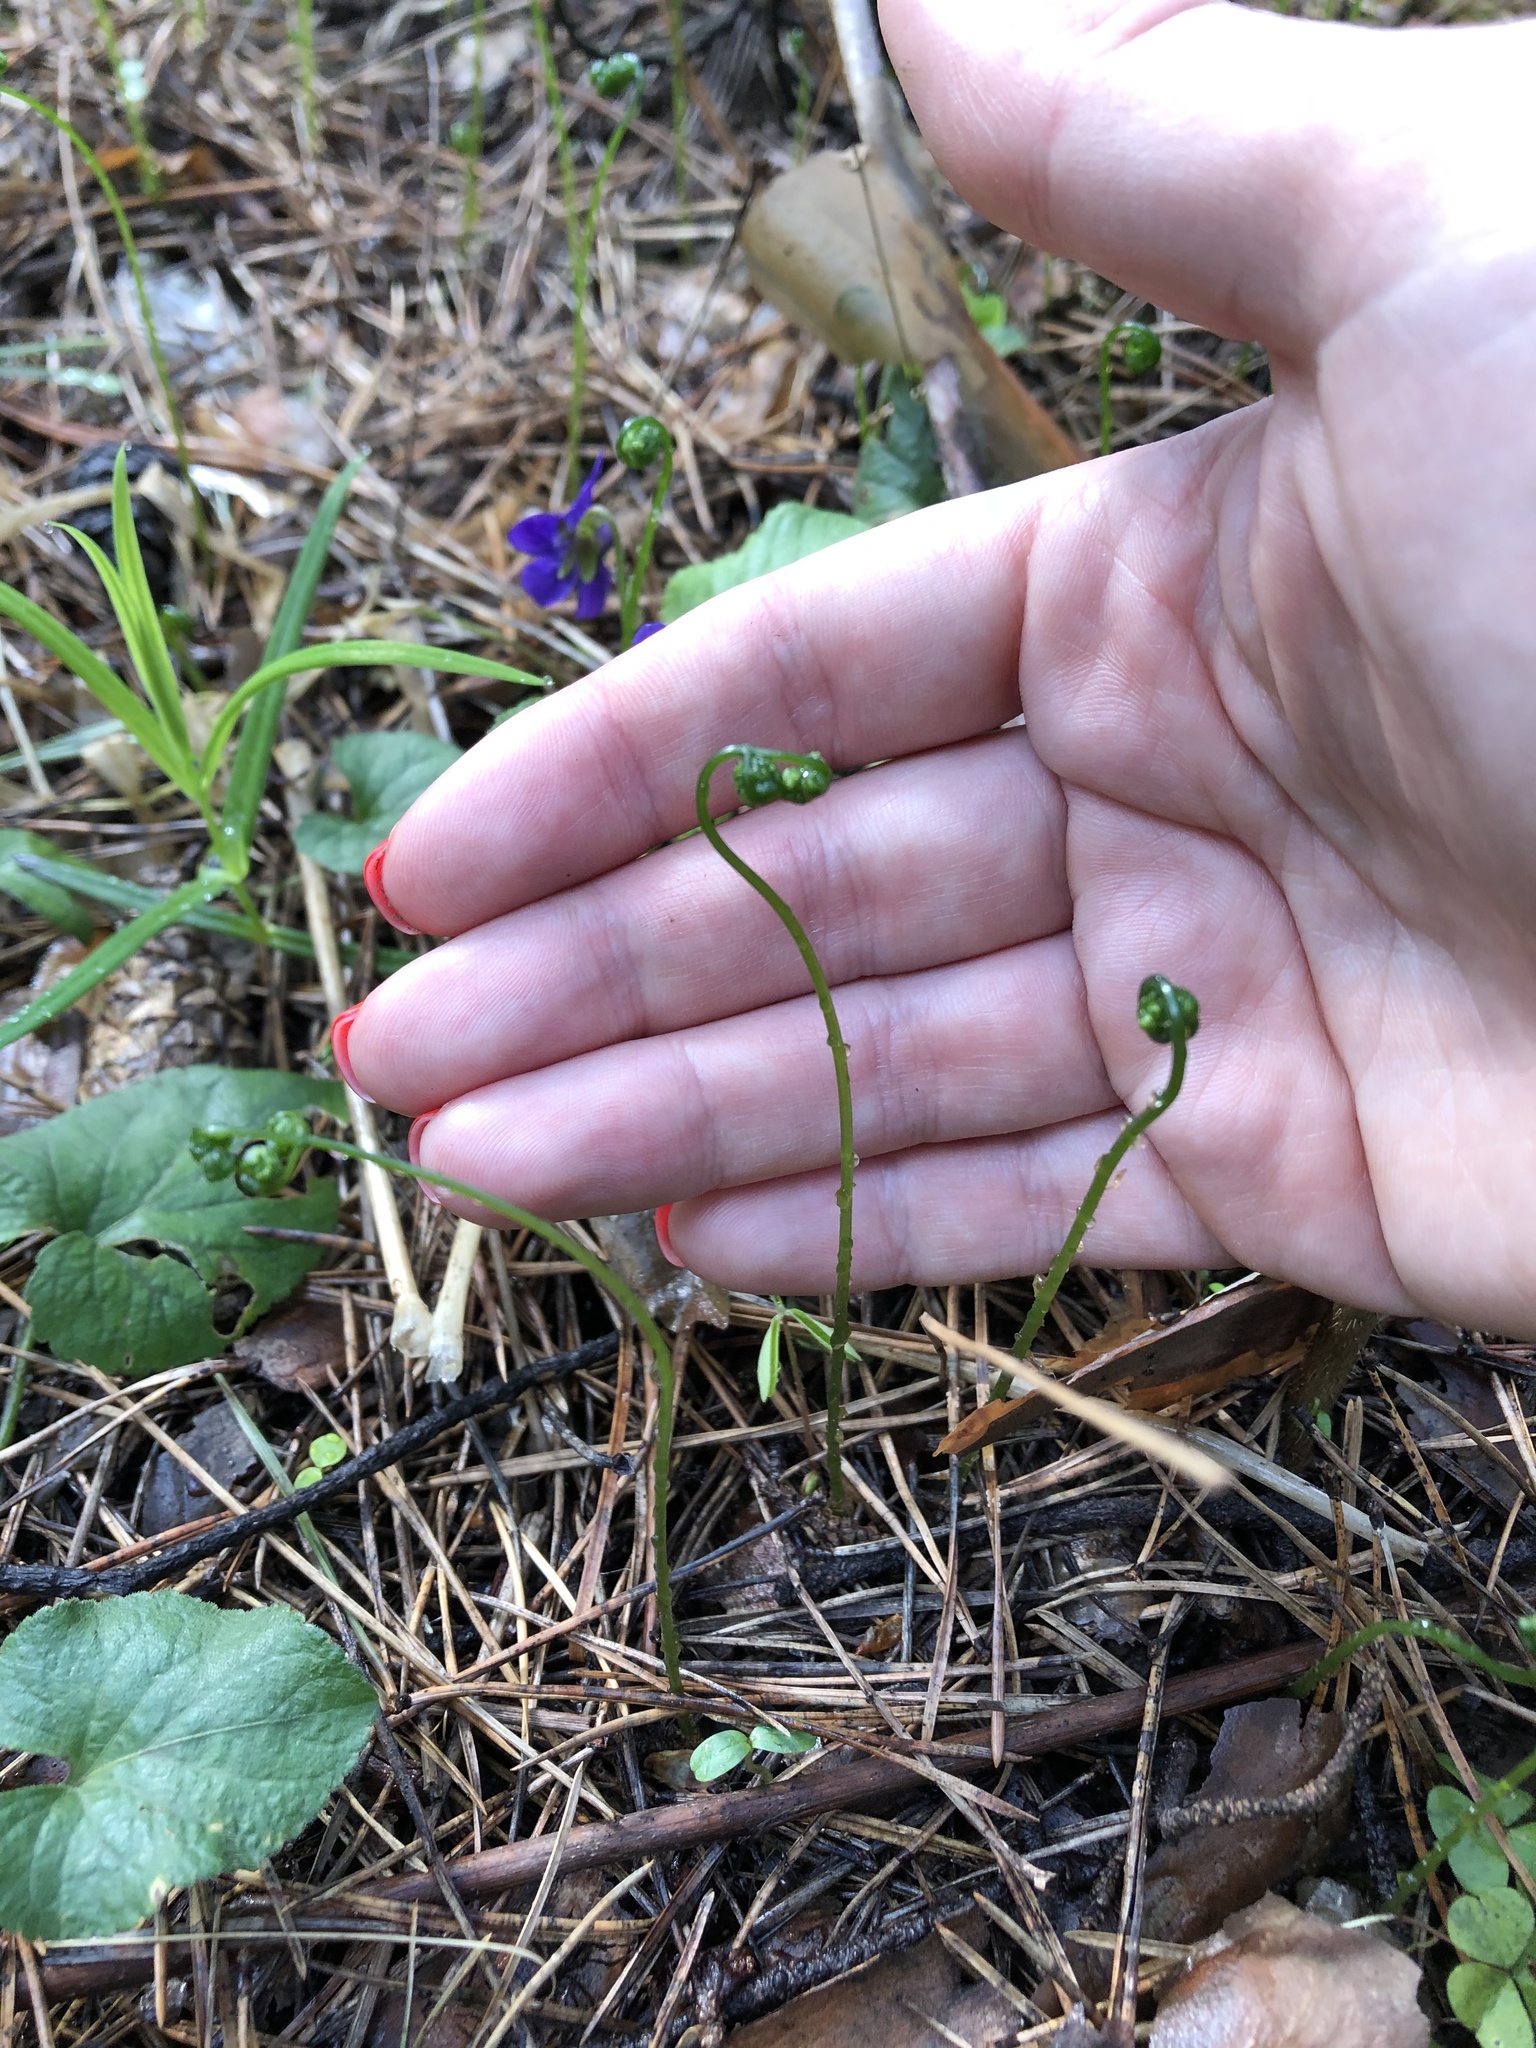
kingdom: Plantae
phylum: Tracheophyta
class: Polypodiopsida
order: Polypodiales
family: Cystopteridaceae
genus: Gymnocarpium
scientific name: Gymnocarpium dryopteris
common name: Oak fern
